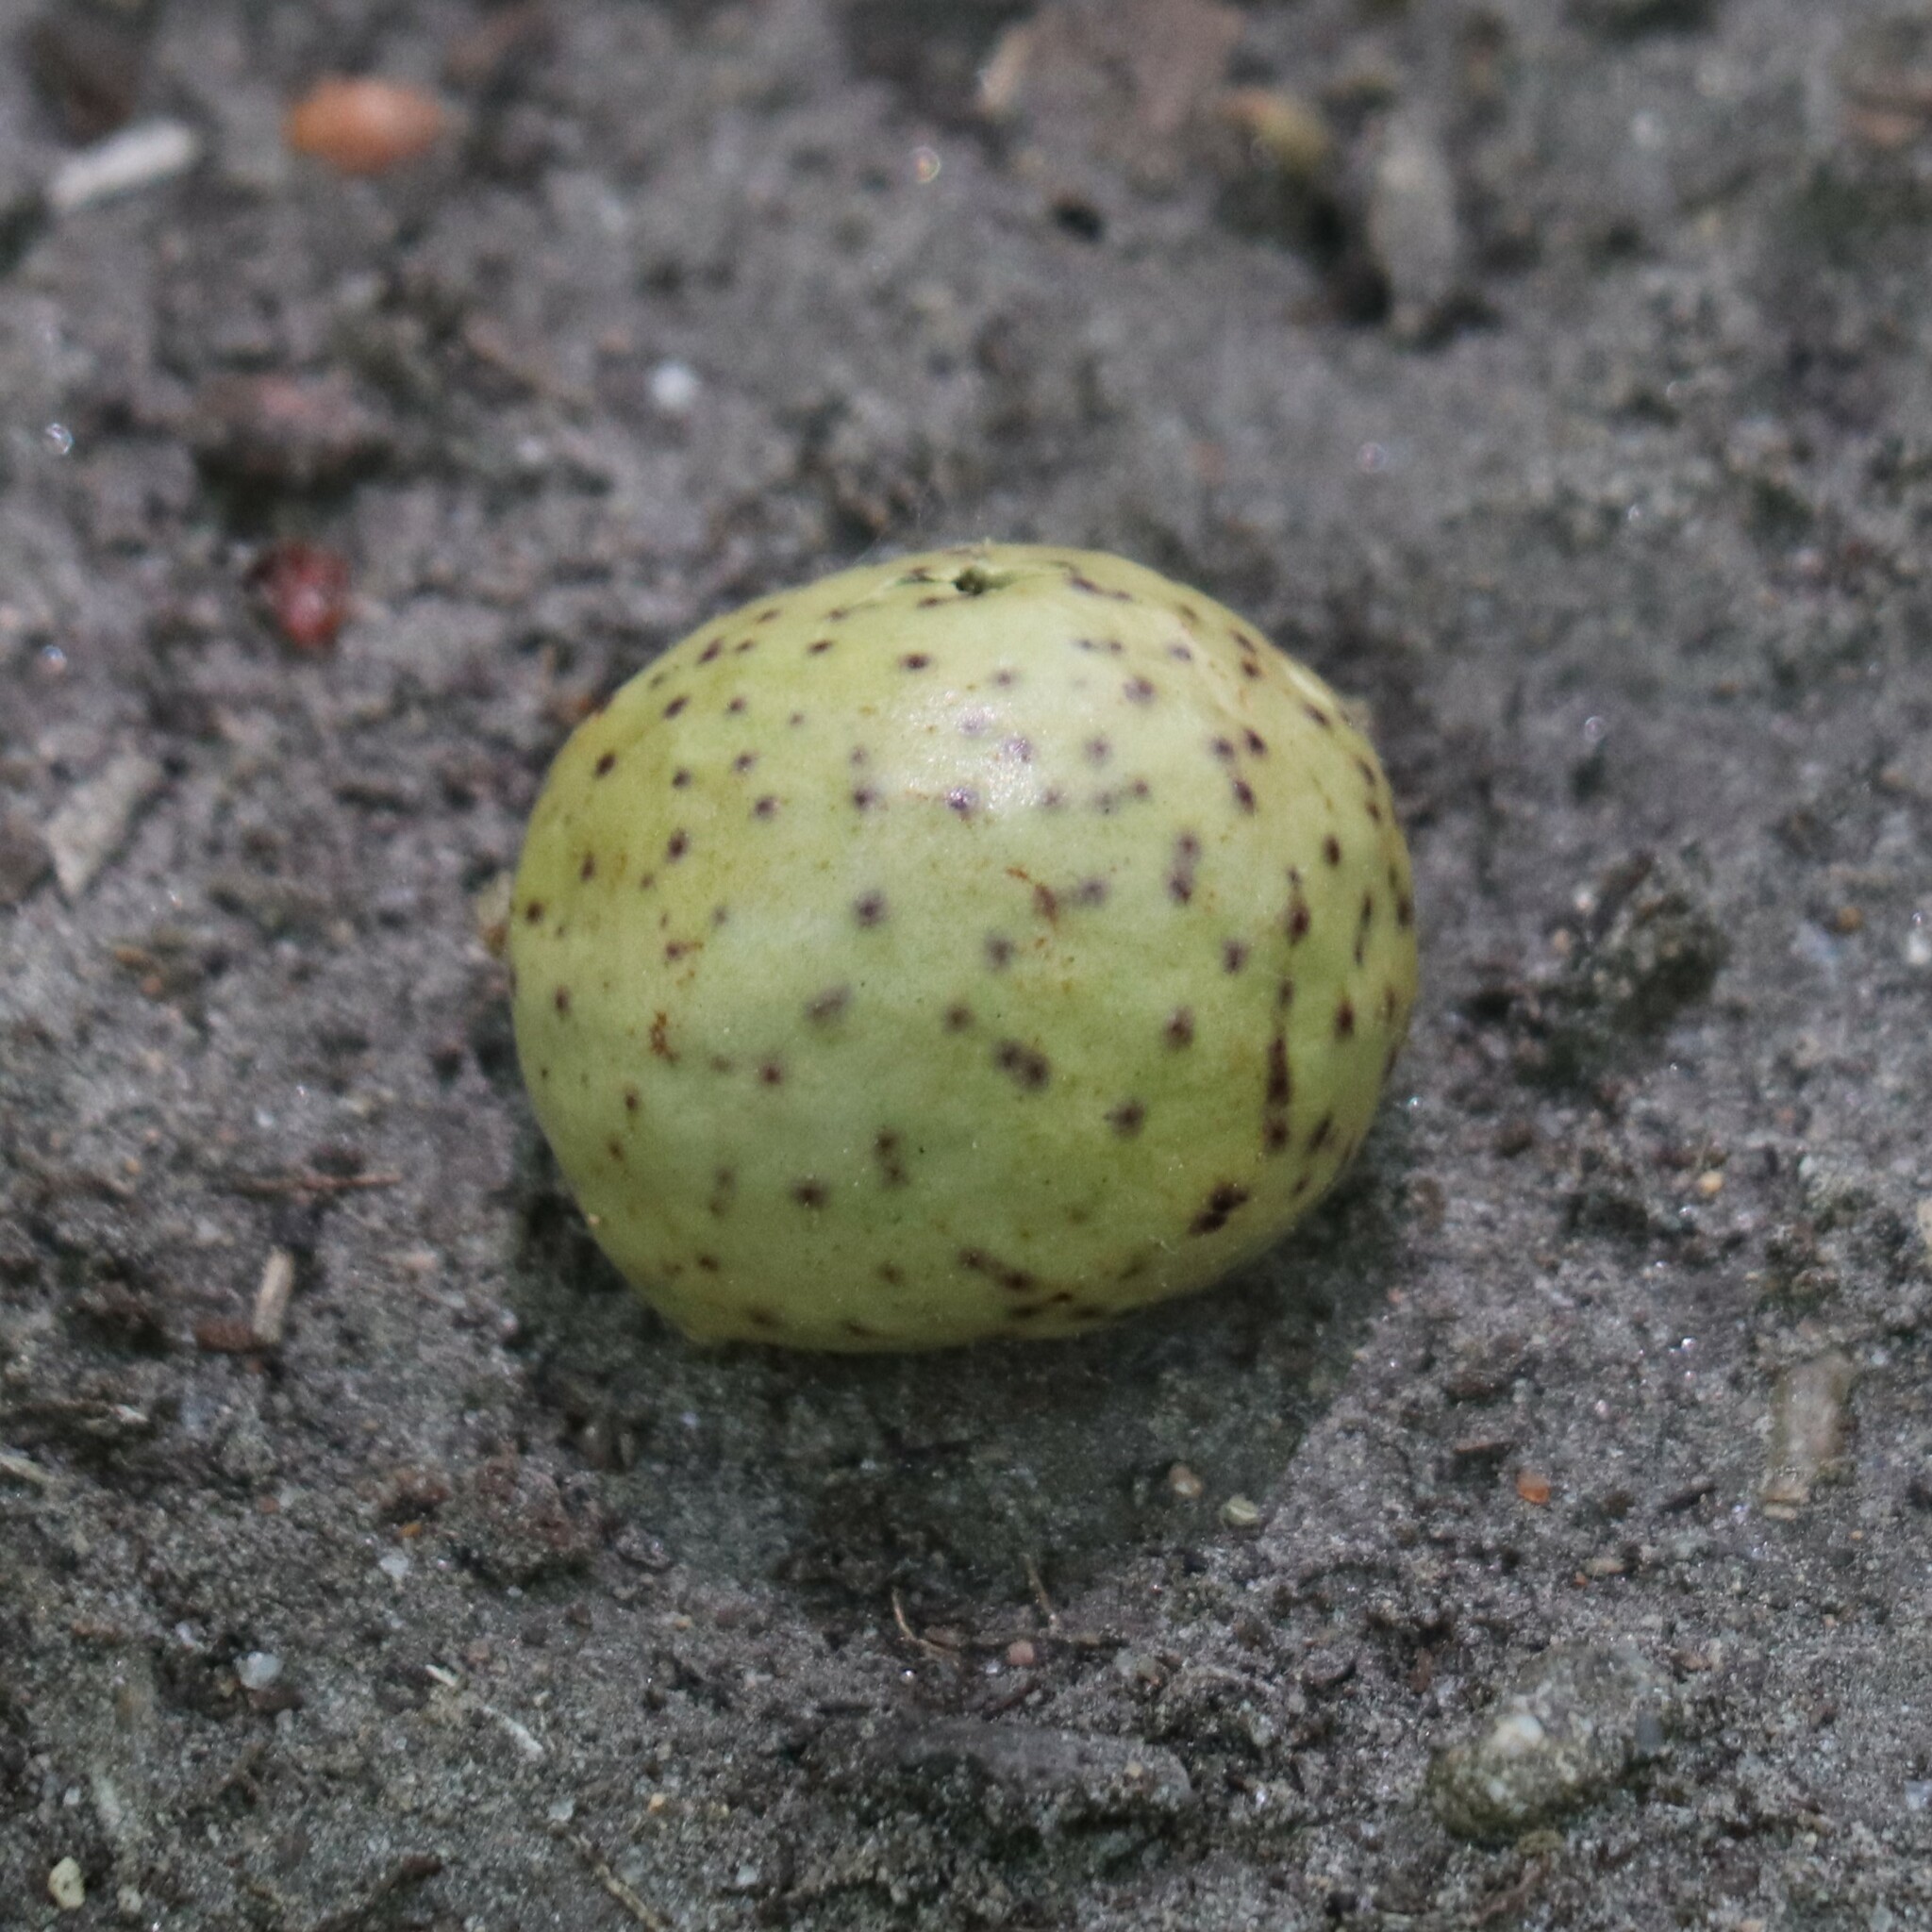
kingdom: Animalia
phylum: Arthropoda
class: Insecta
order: Hymenoptera
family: Cynipidae
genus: Amphibolips
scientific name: Amphibolips
